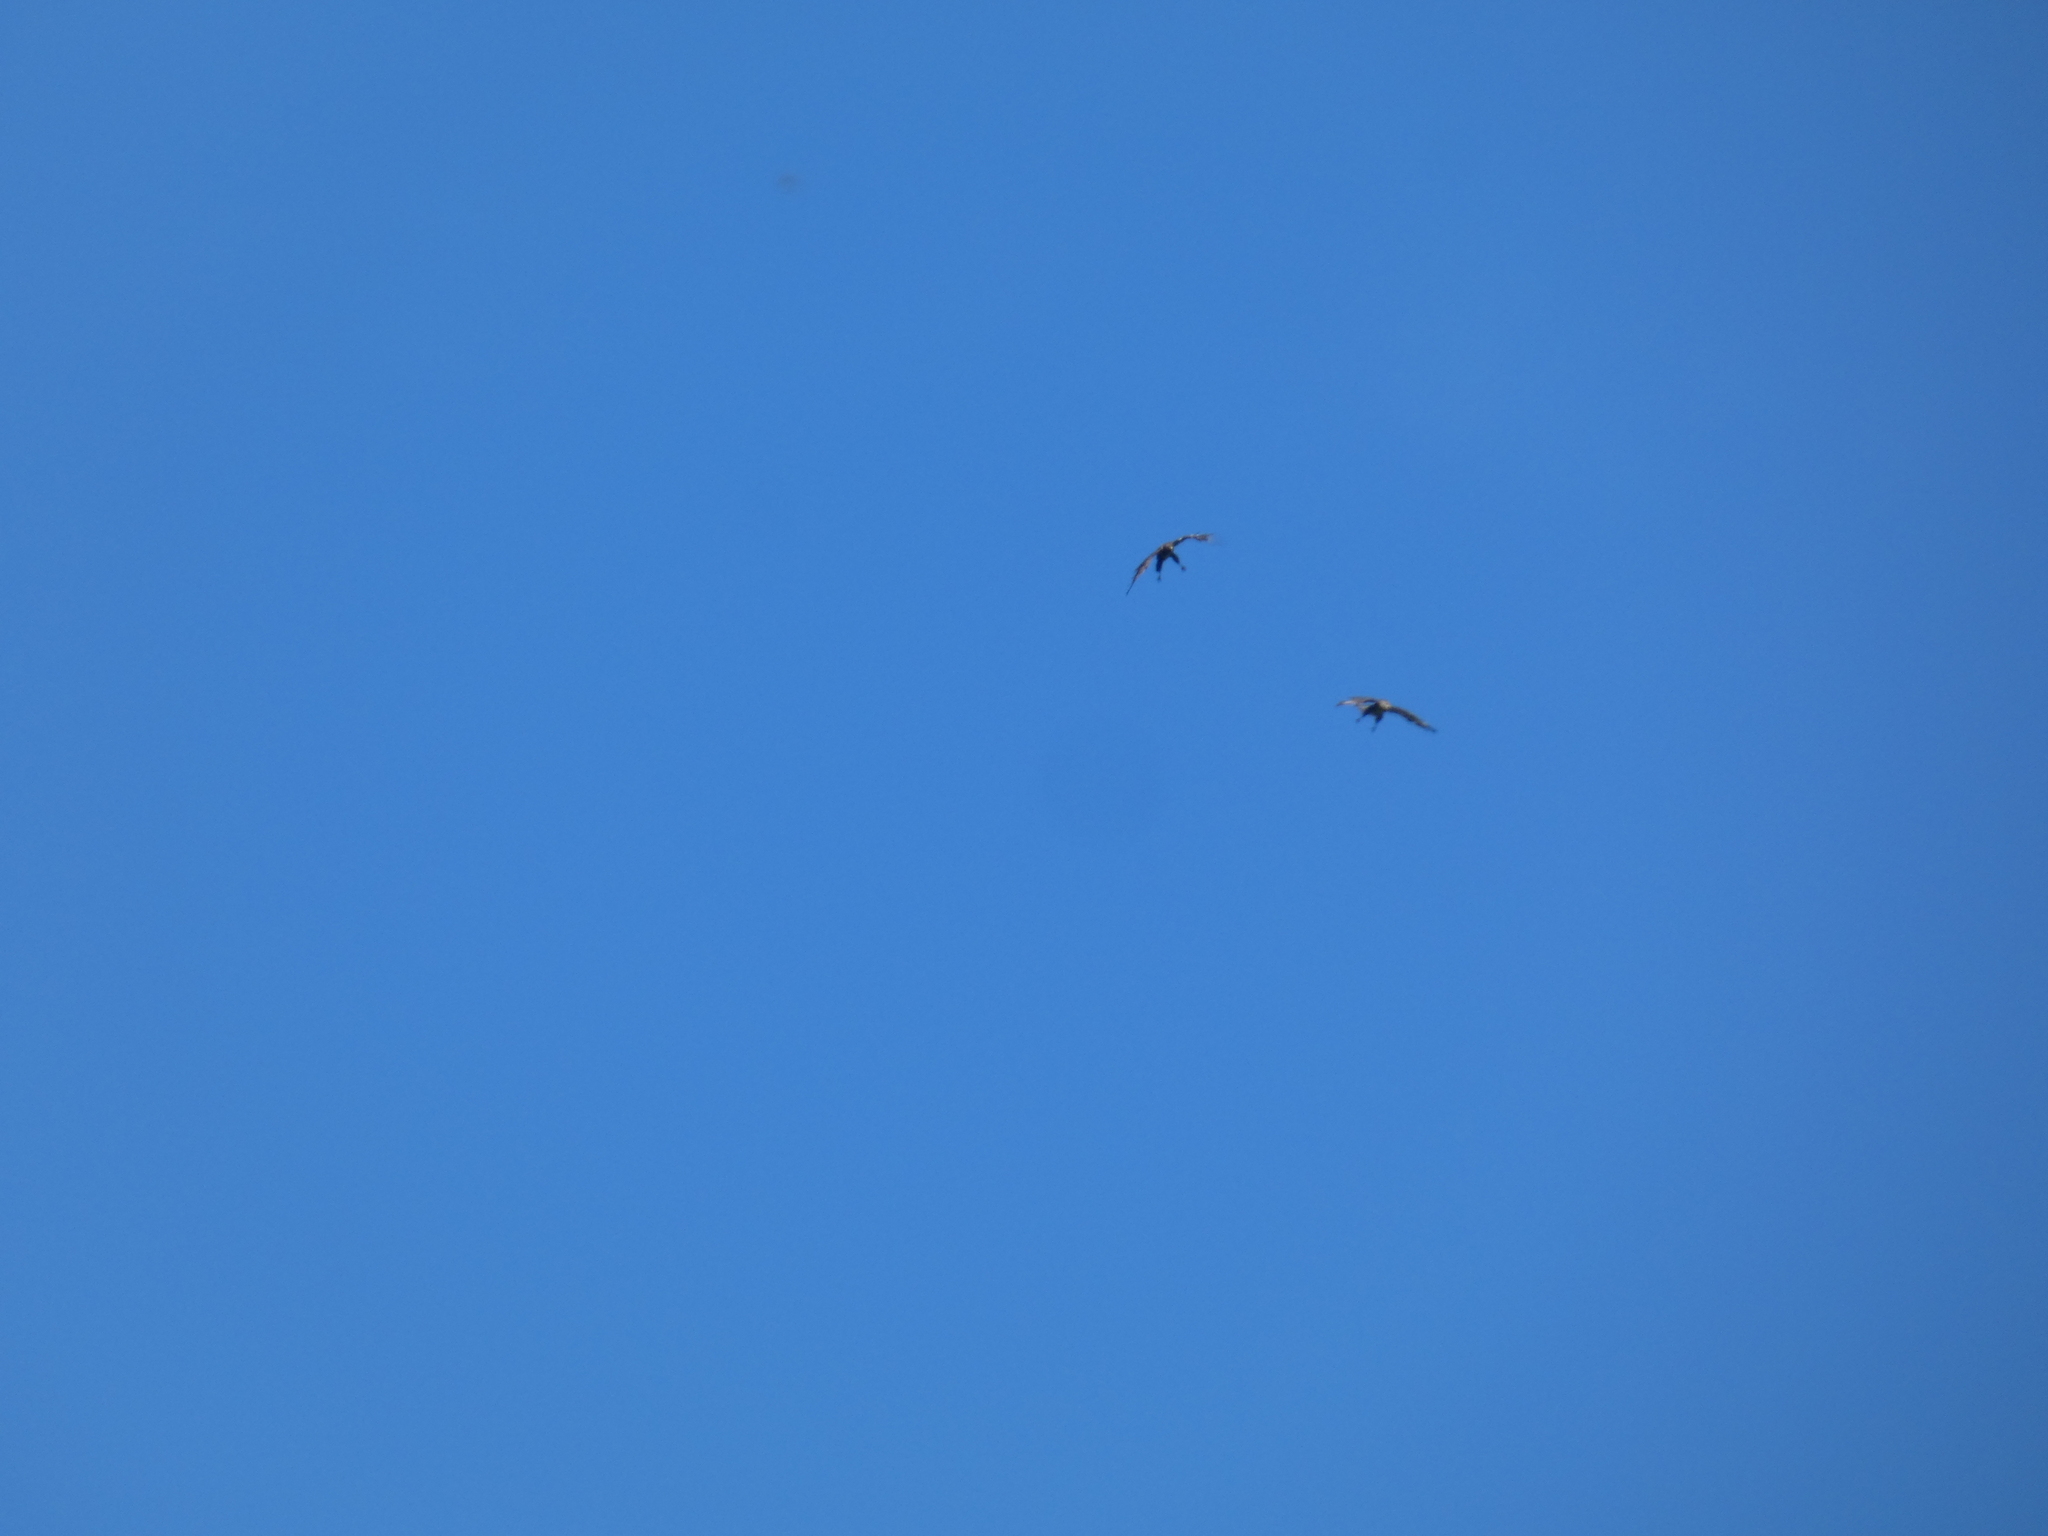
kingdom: Animalia
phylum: Chordata
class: Aves
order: Accipitriformes
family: Accipitridae
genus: Buteo
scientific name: Buteo buteo
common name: Common buzzard
